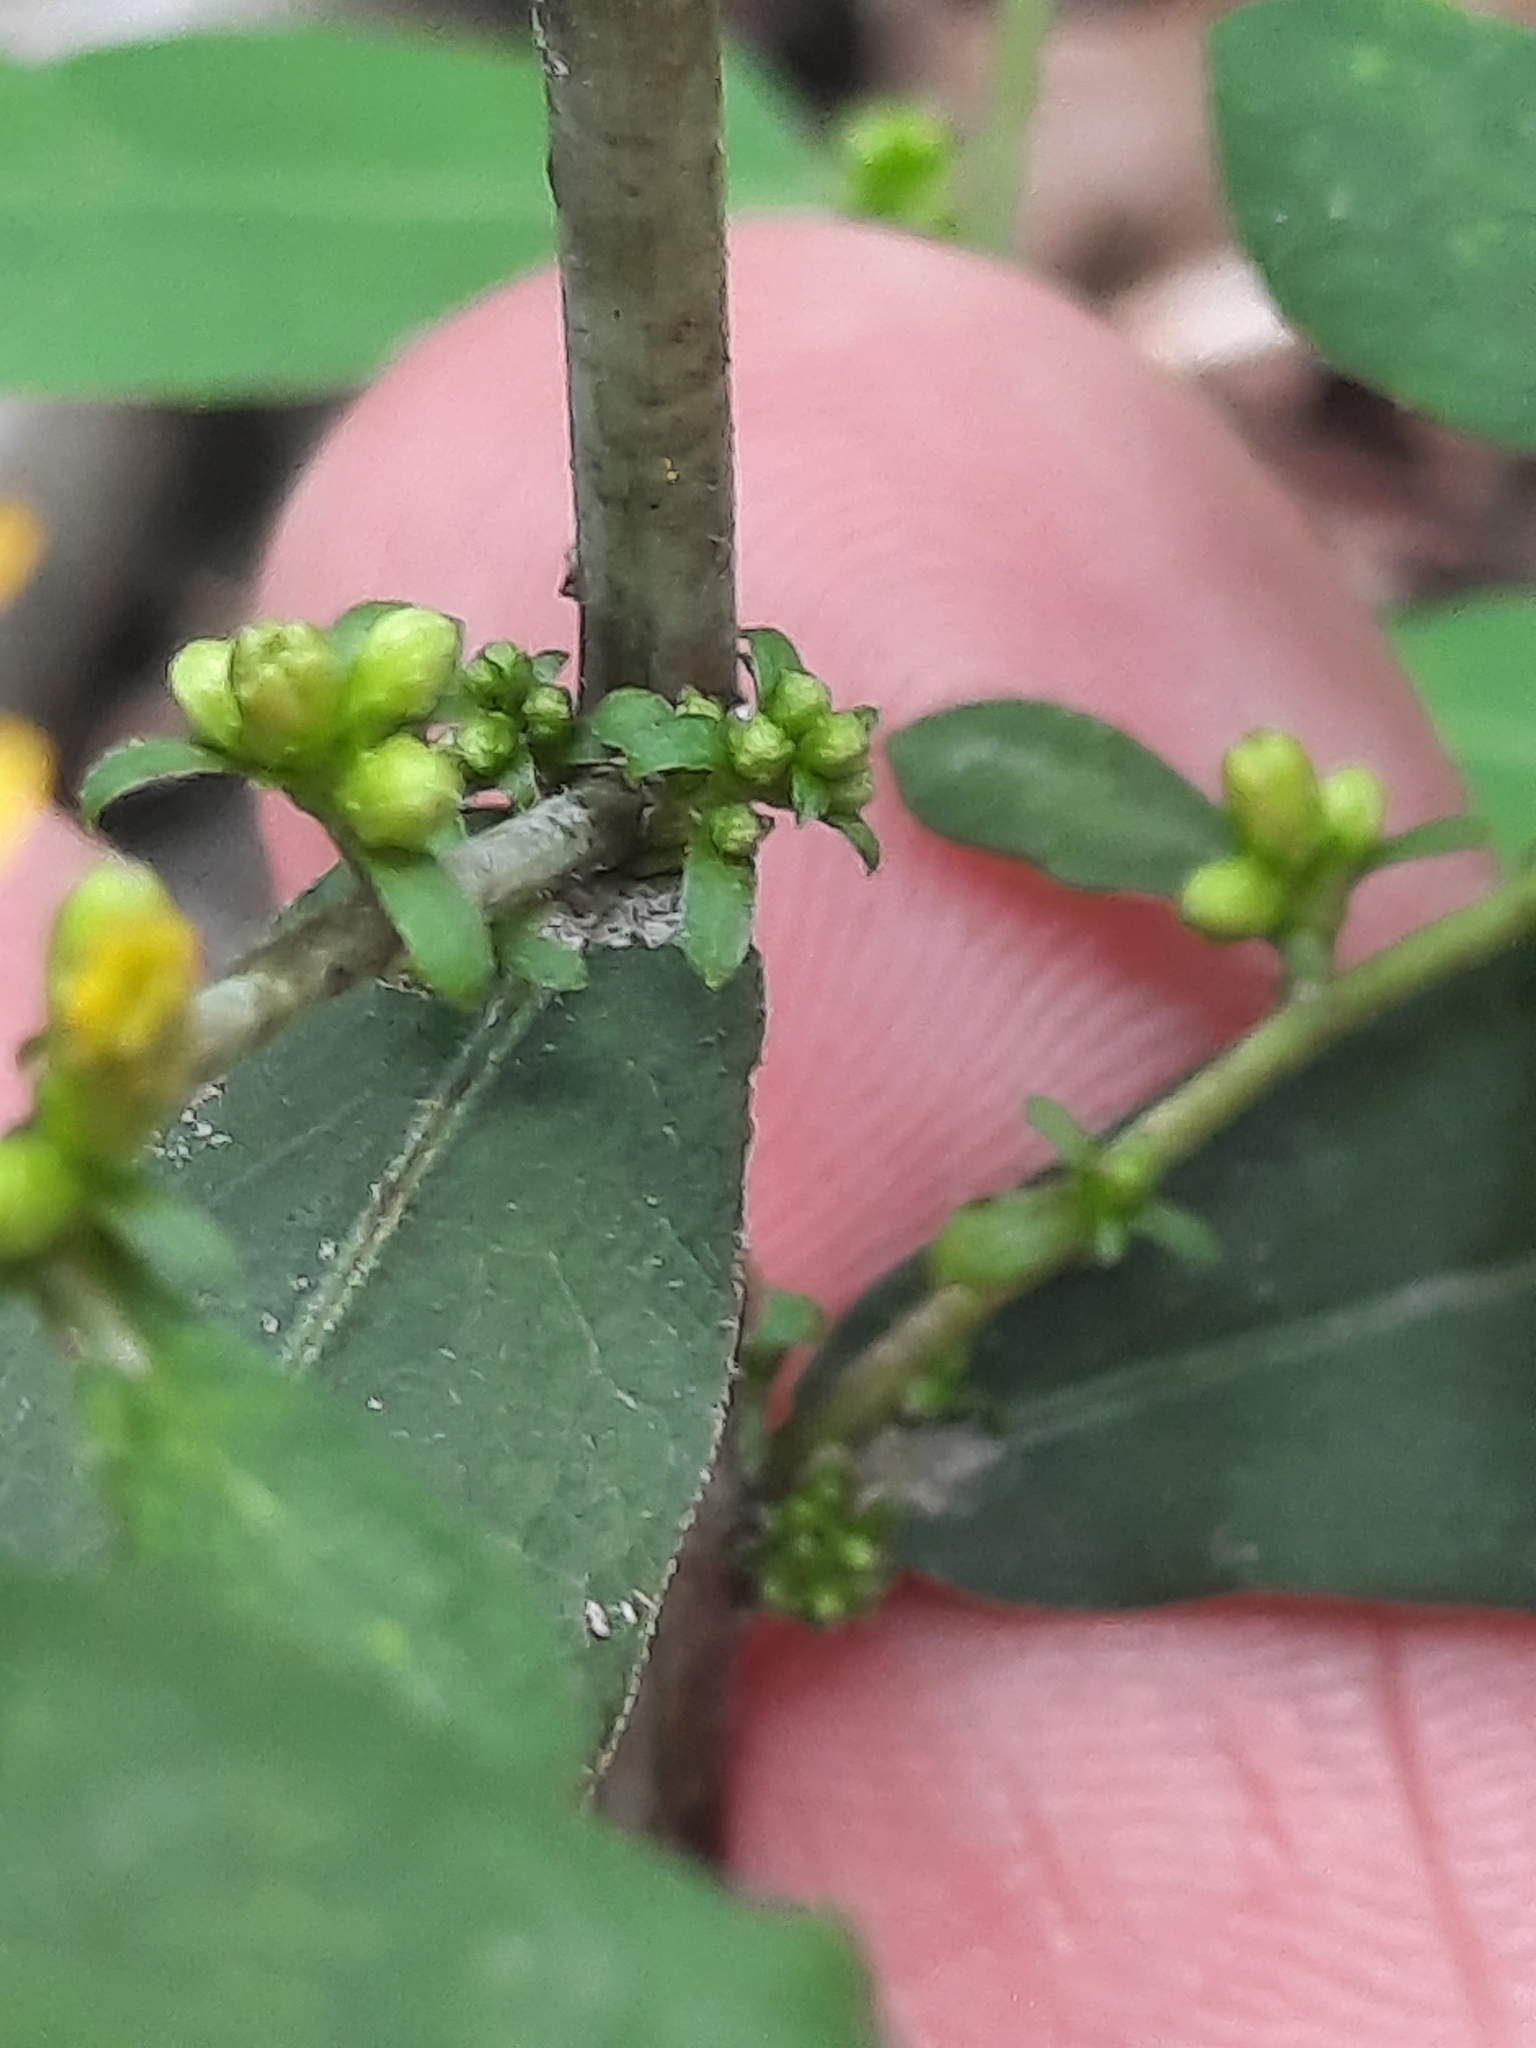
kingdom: Plantae
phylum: Tracheophyta
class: Magnoliopsida
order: Asterales
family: Asteraceae
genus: Solidago
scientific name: Solidago caesia
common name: Woodland goldenrod
